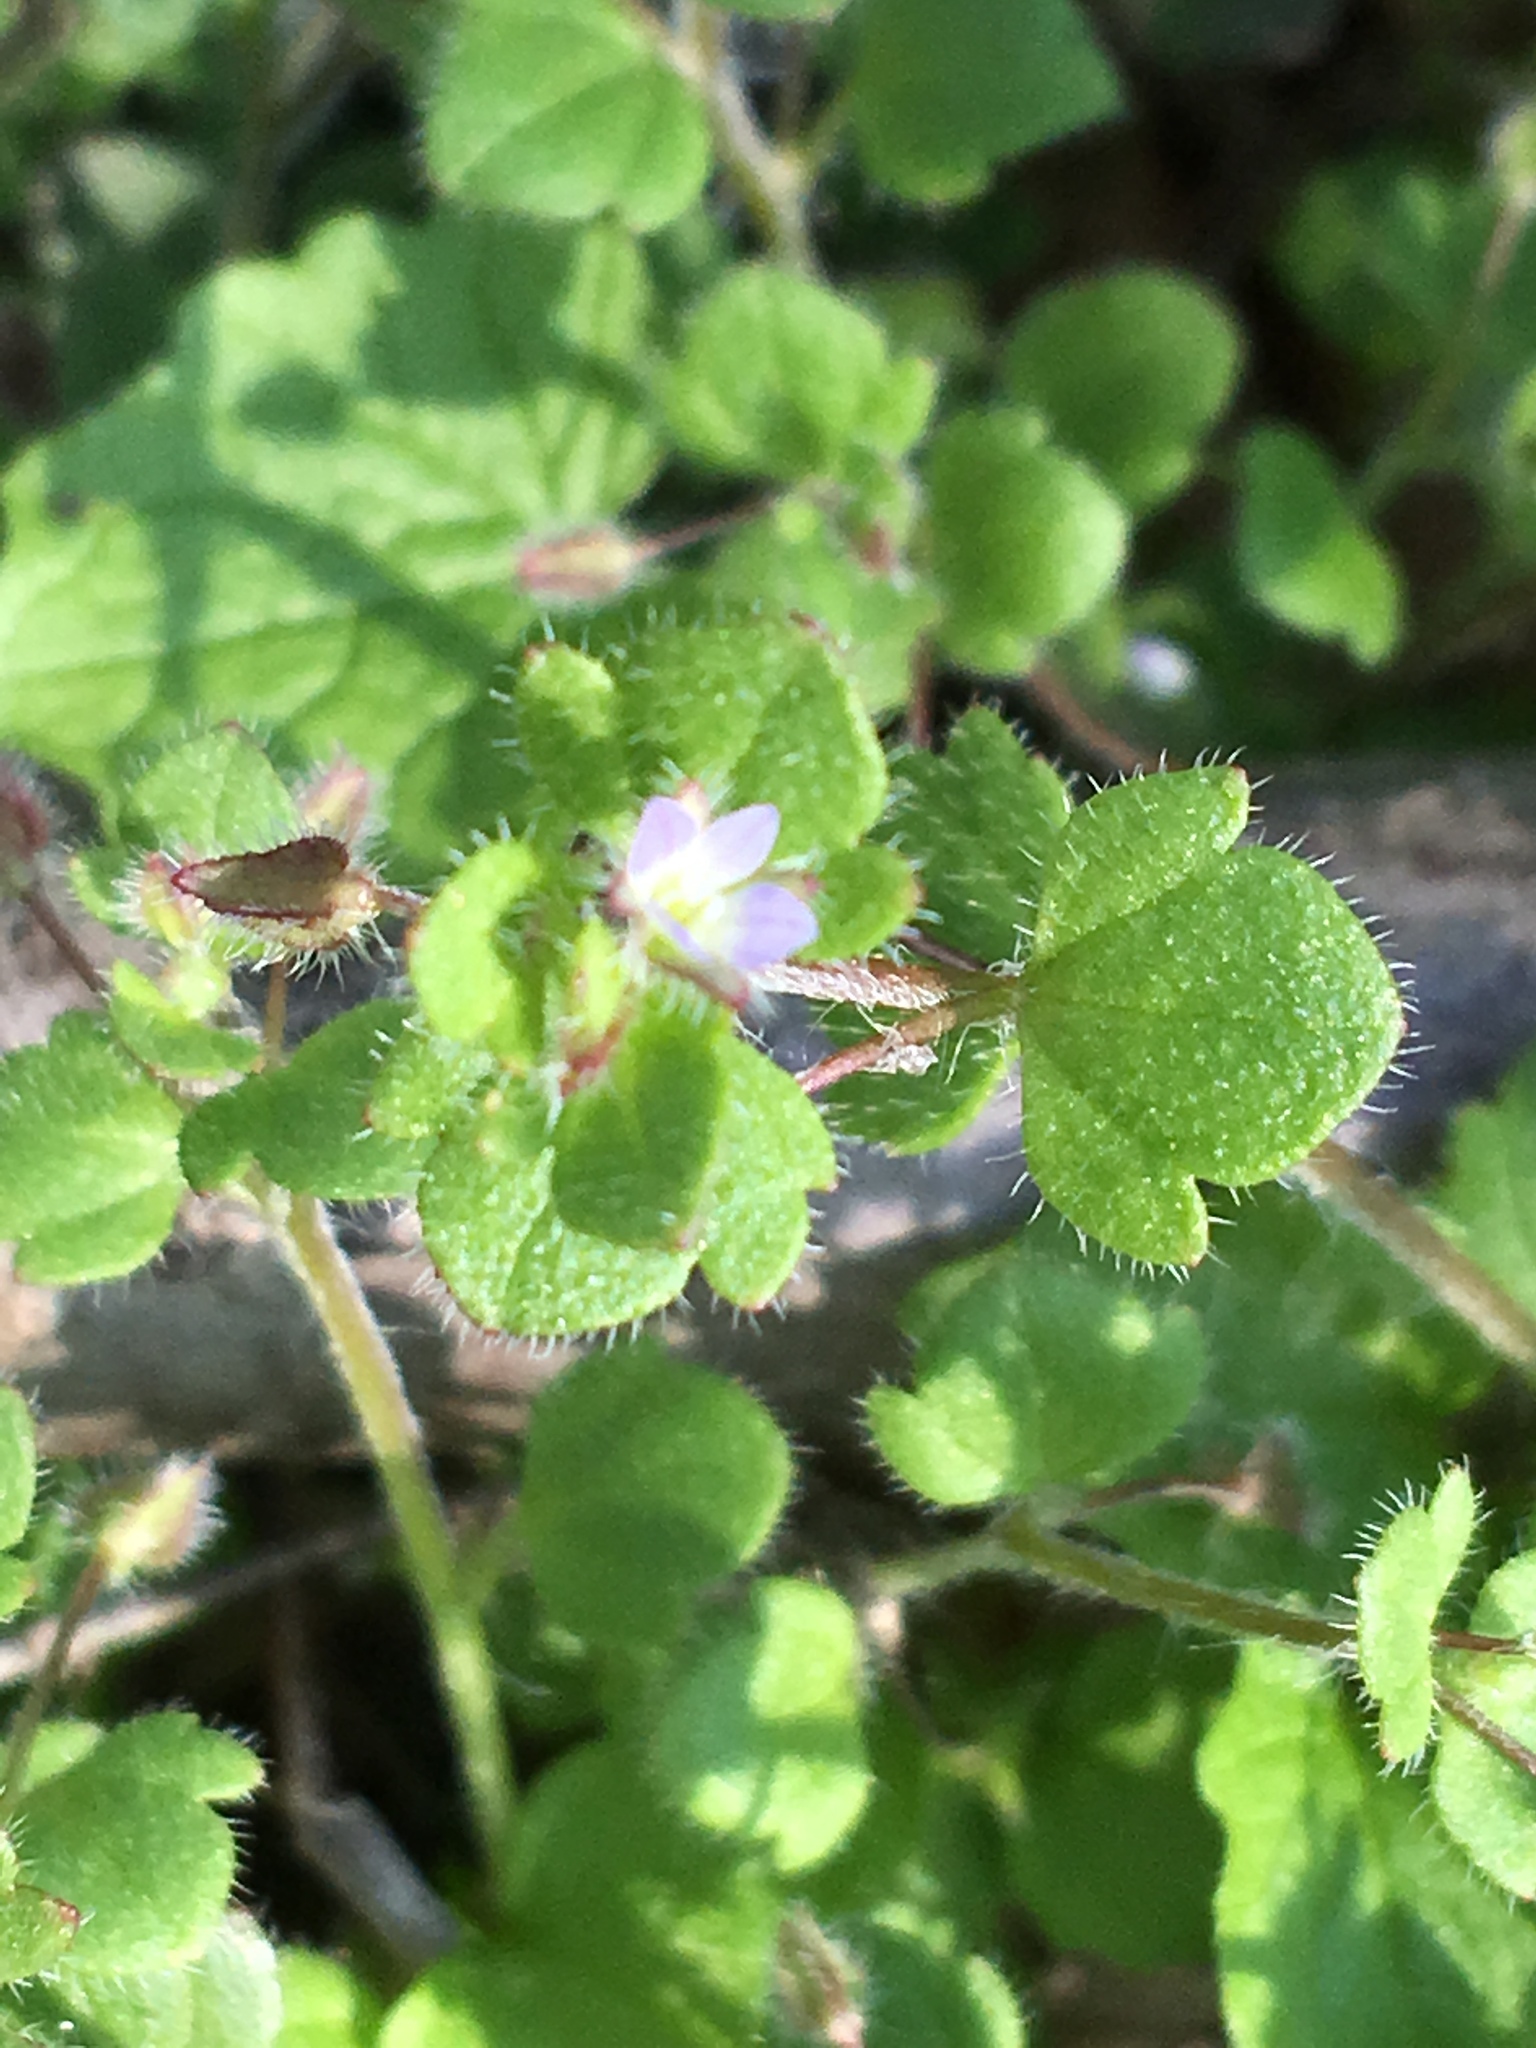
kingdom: Plantae
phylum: Tracheophyta
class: Magnoliopsida
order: Lamiales
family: Plantaginaceae
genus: Veronica
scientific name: Veronica hederifolia
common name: Ivy-leaved speedwell
